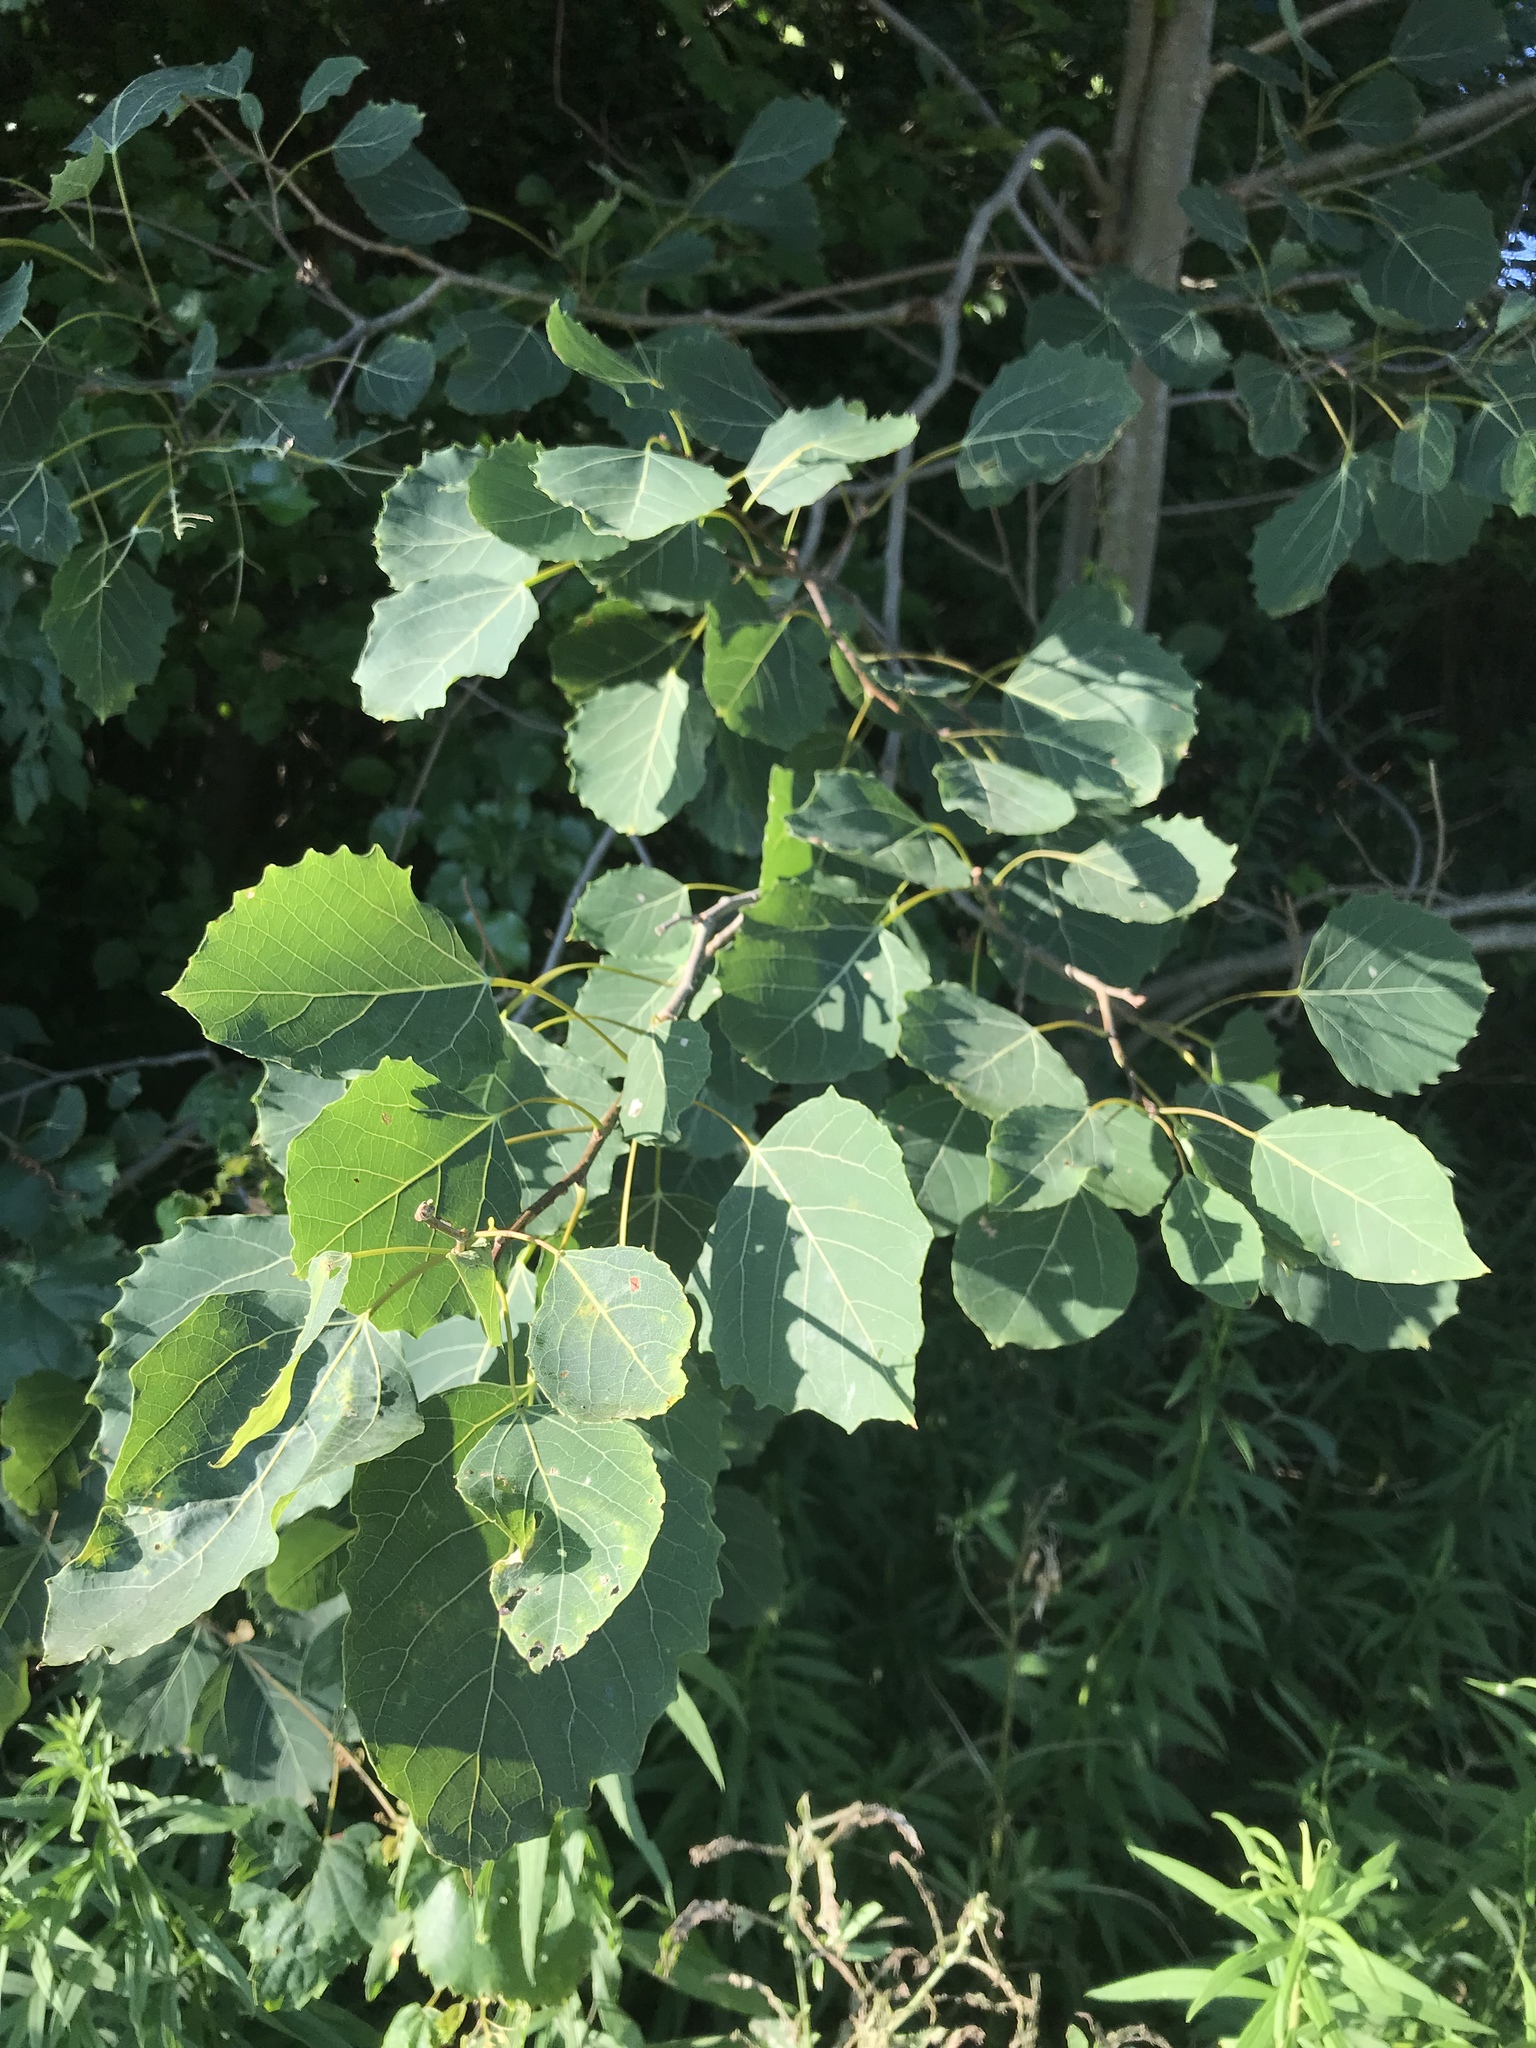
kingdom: Plantae
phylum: Tracheophyta
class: Magnoliopsida
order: Malpighiales
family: Salicaceae
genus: Populus
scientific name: Populus grandidentata
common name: Bigtooth aspen
